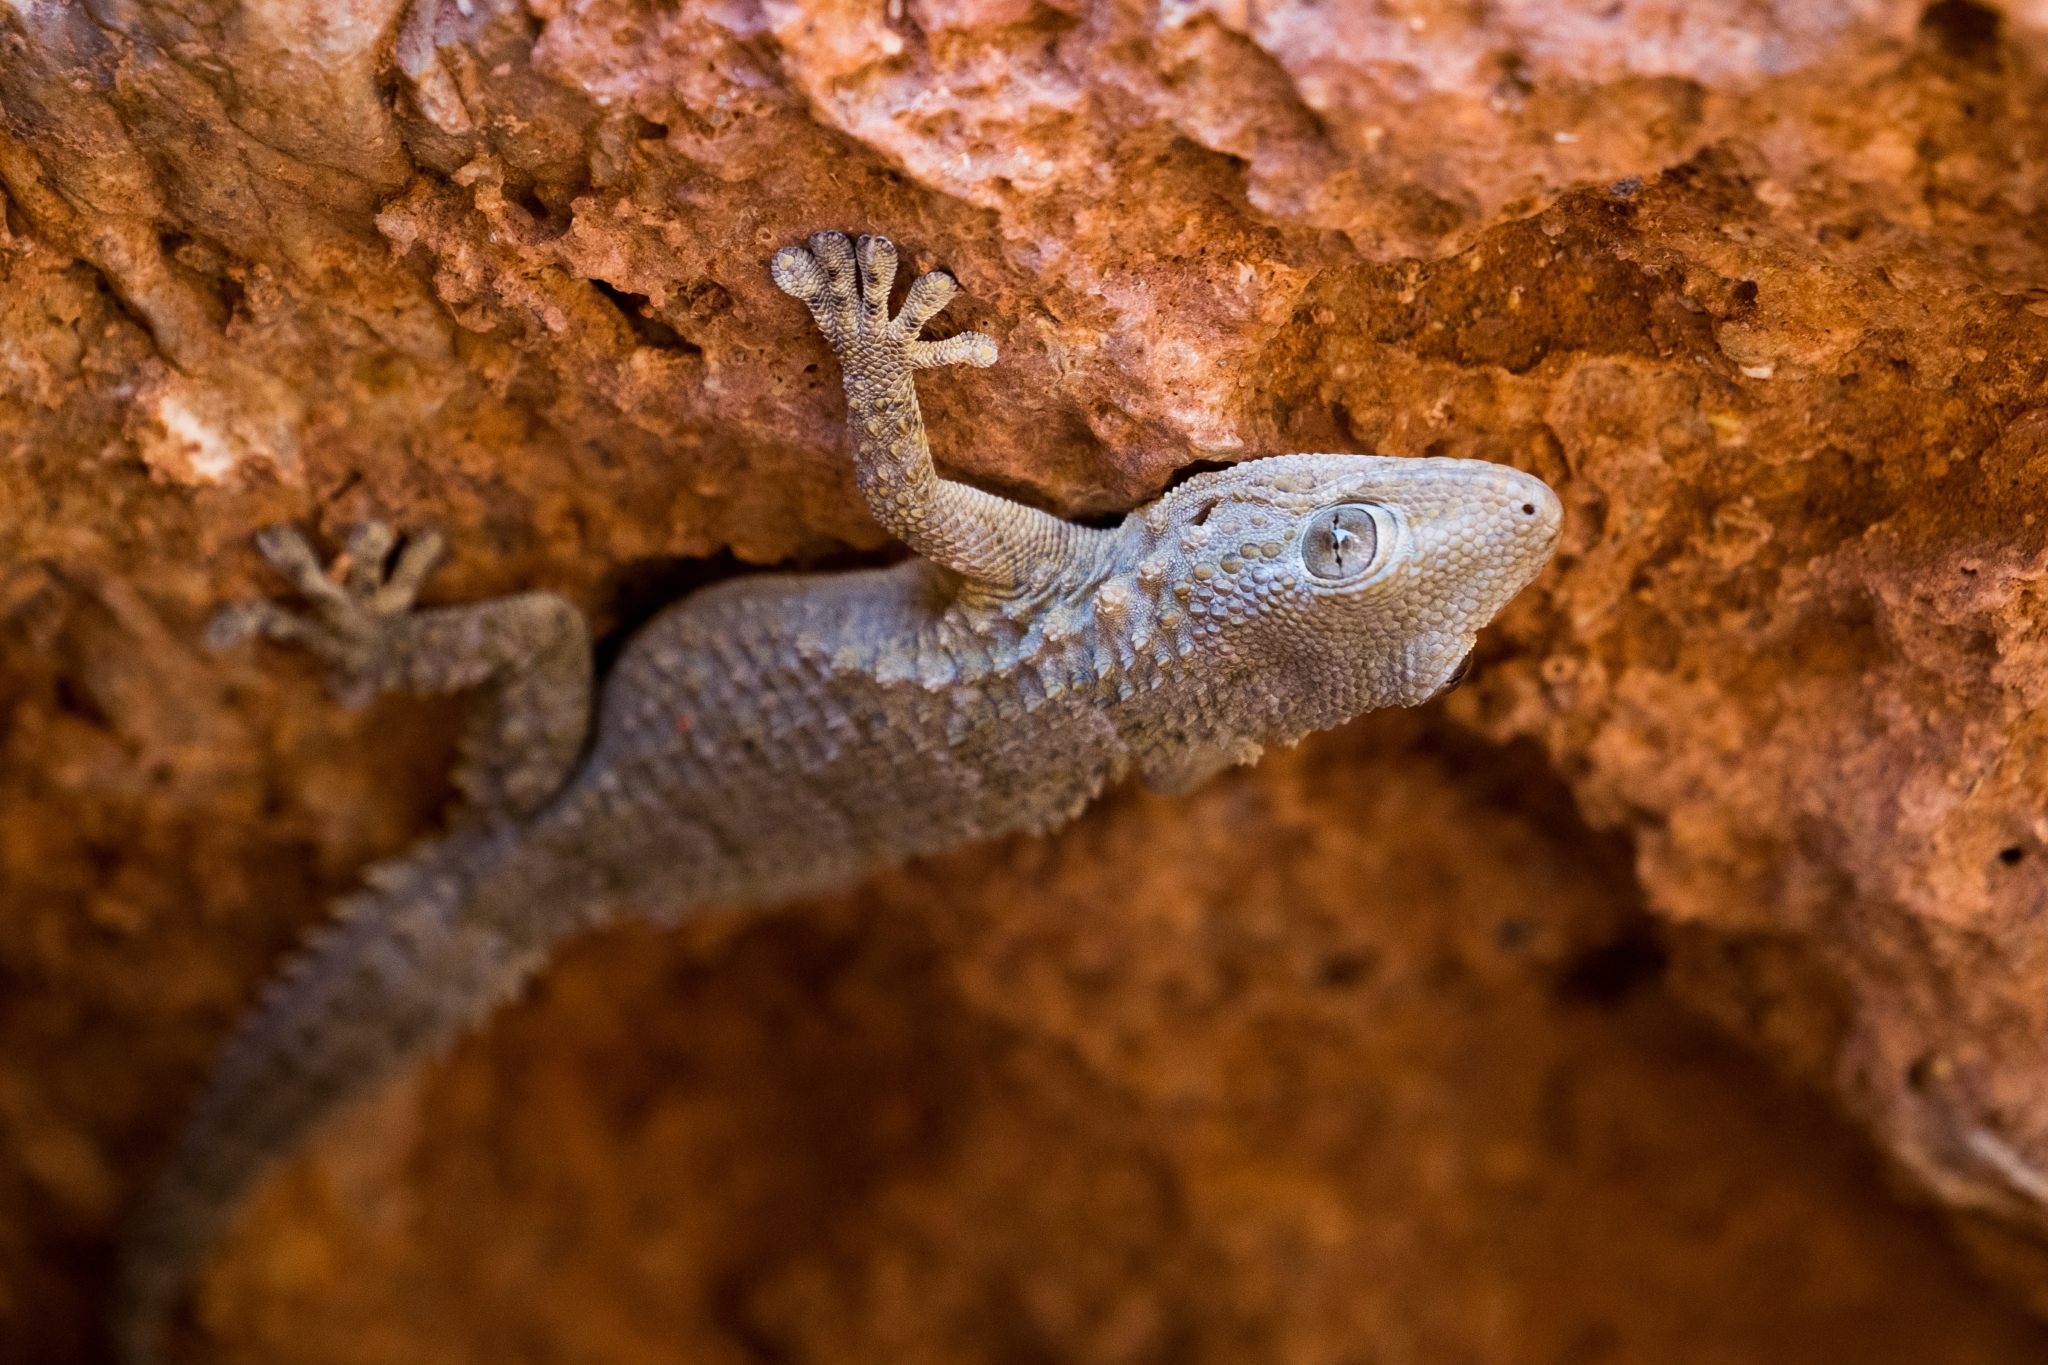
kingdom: Animalia
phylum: Chordata
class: Squamata
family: Phyllodactylidae
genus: Tarentola
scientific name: Tarentola mauritanica
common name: Moorish gecko
